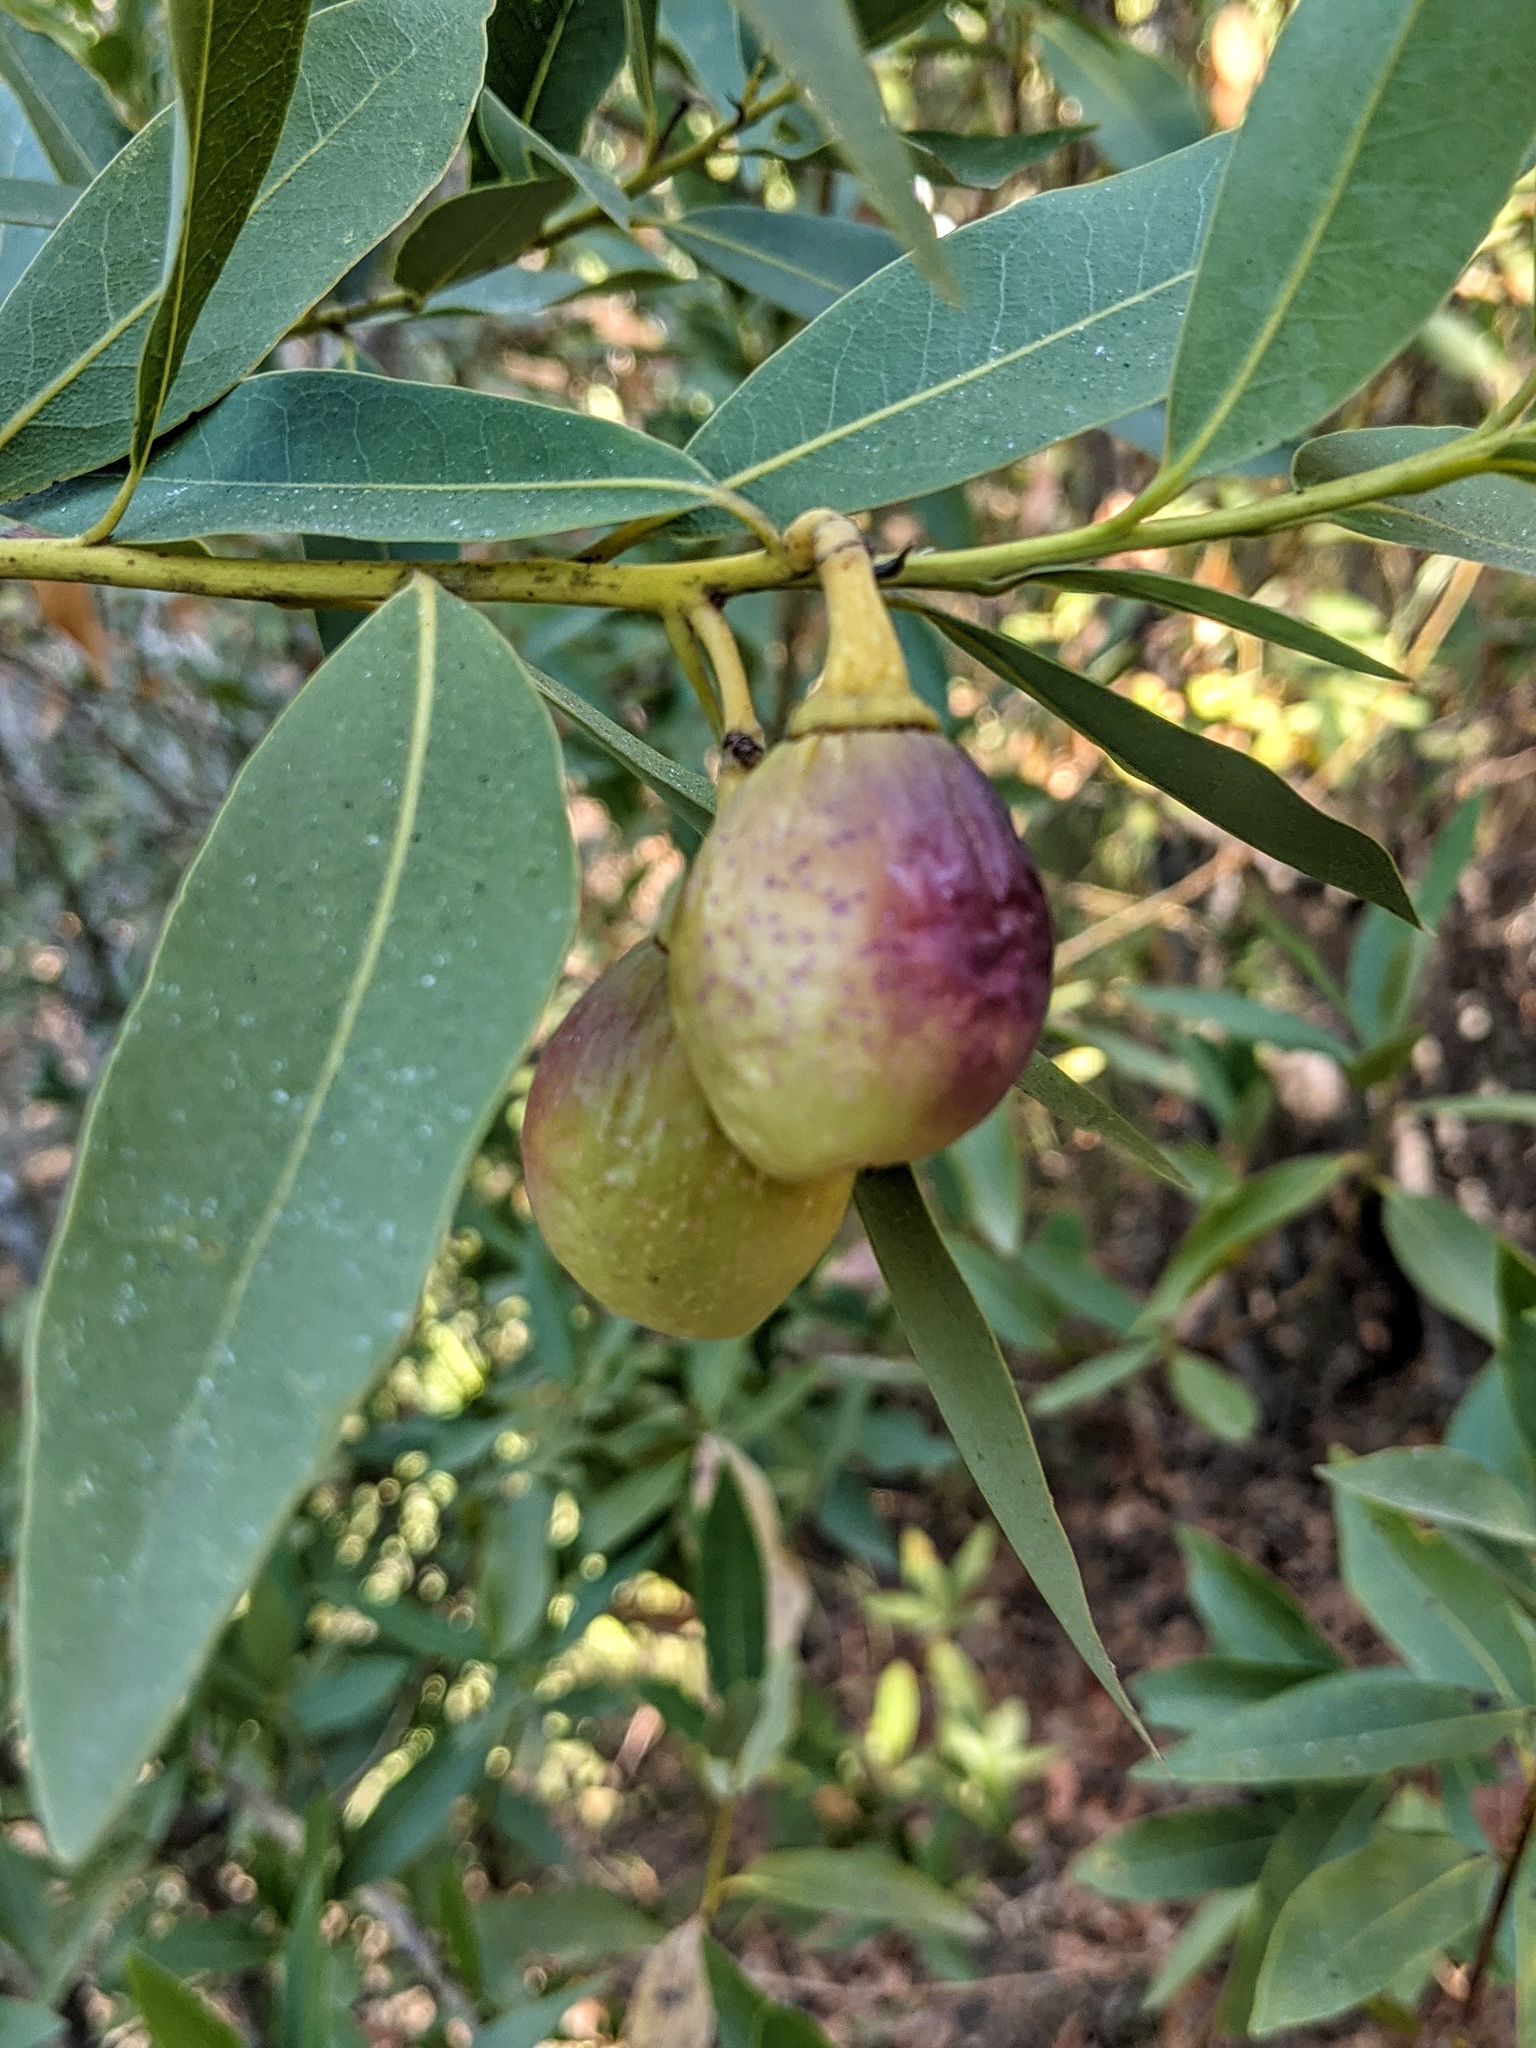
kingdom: Plantae
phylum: Tracheophyta
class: Magnoliopsida
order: Laurales
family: Lauraceae
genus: Umbellularia
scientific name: Umbellularia californica
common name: California bay
